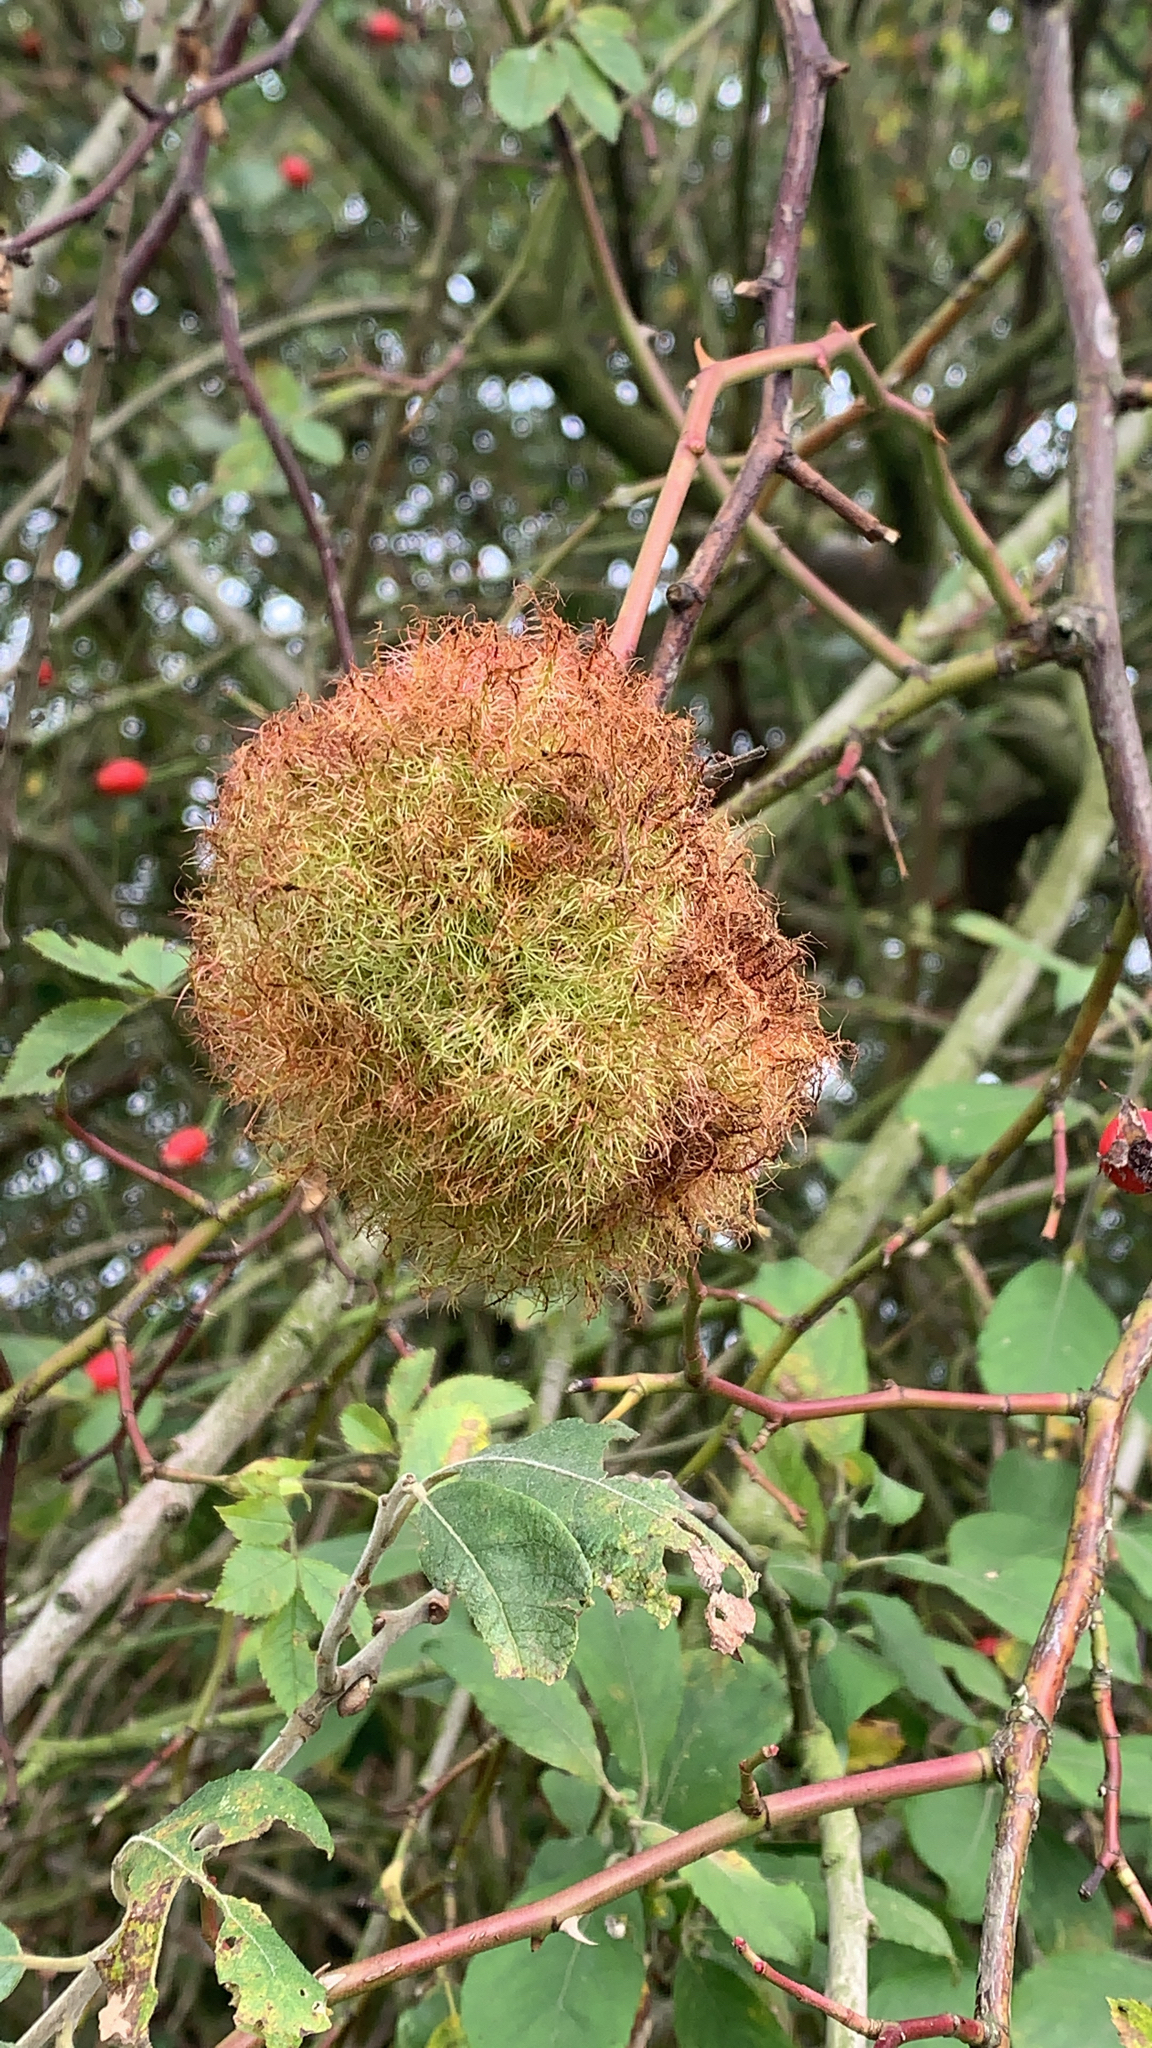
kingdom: Animalia
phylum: Arthropoda
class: Insecta
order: Hymenoptera
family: Cynipidae
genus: Diplolepis
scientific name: Diplolepis rosae
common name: Bedeguar gall
